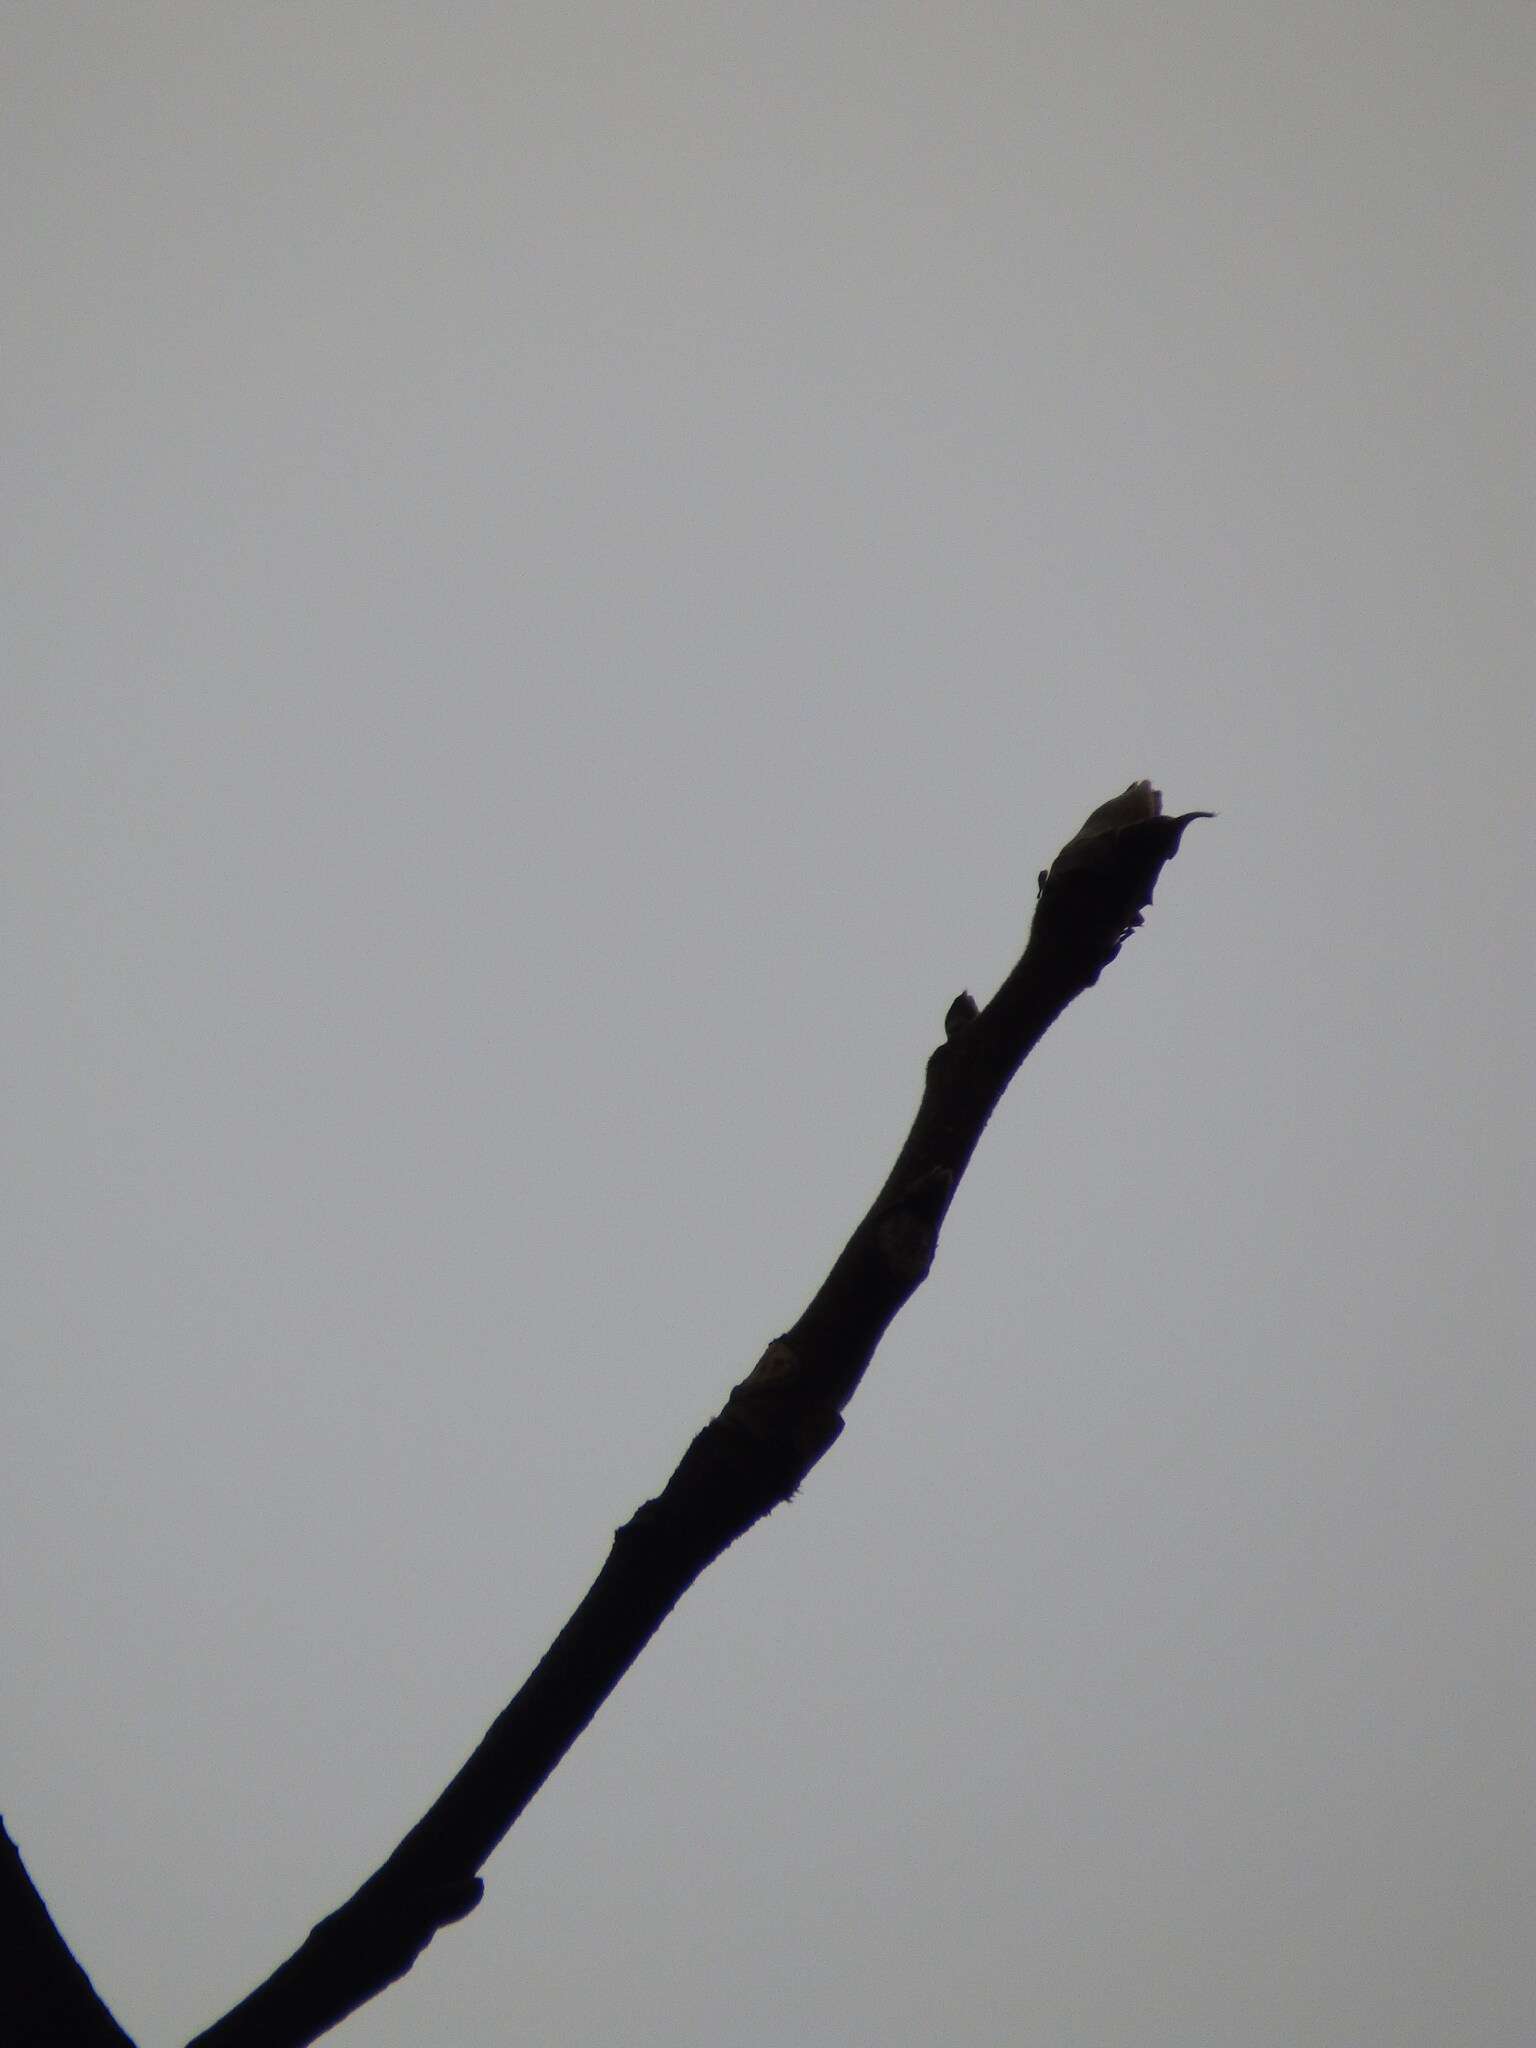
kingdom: Plantae
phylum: Tracheophyta
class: Magnoliopsida
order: Fagales
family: Juglandaceae
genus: Carya
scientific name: Carya ovata
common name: Shagbark hickory
